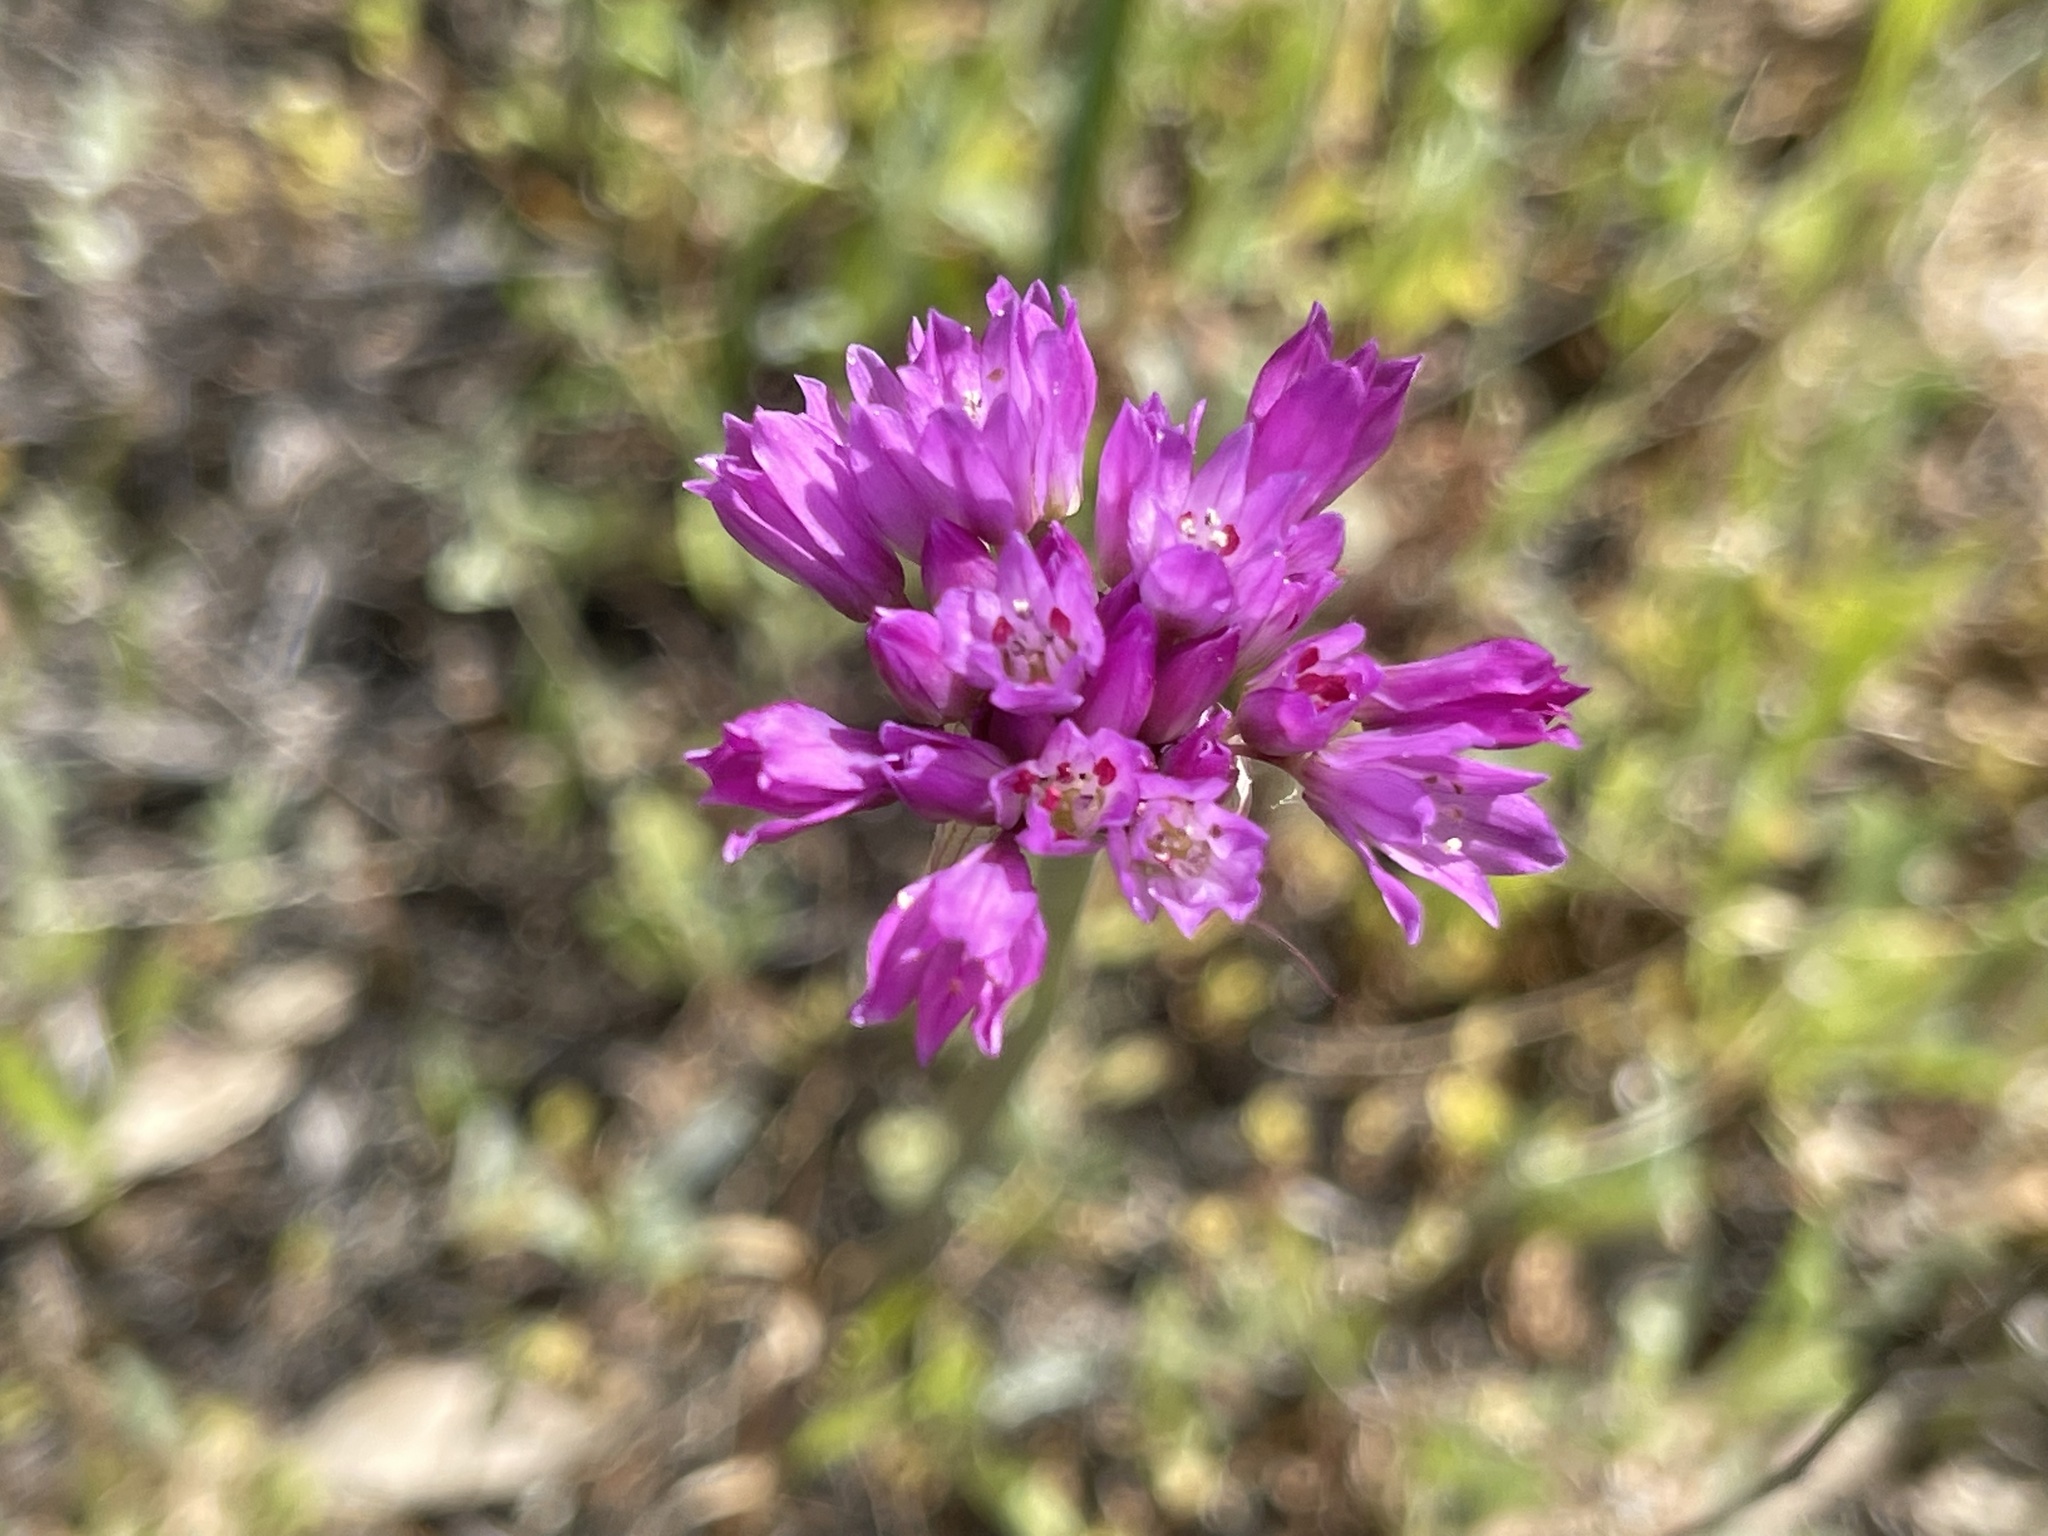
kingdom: Plantae
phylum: Tracheophyta
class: Liliopsida
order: Asparagales
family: Amaryllidaceae
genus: Allium
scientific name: Allium serra
